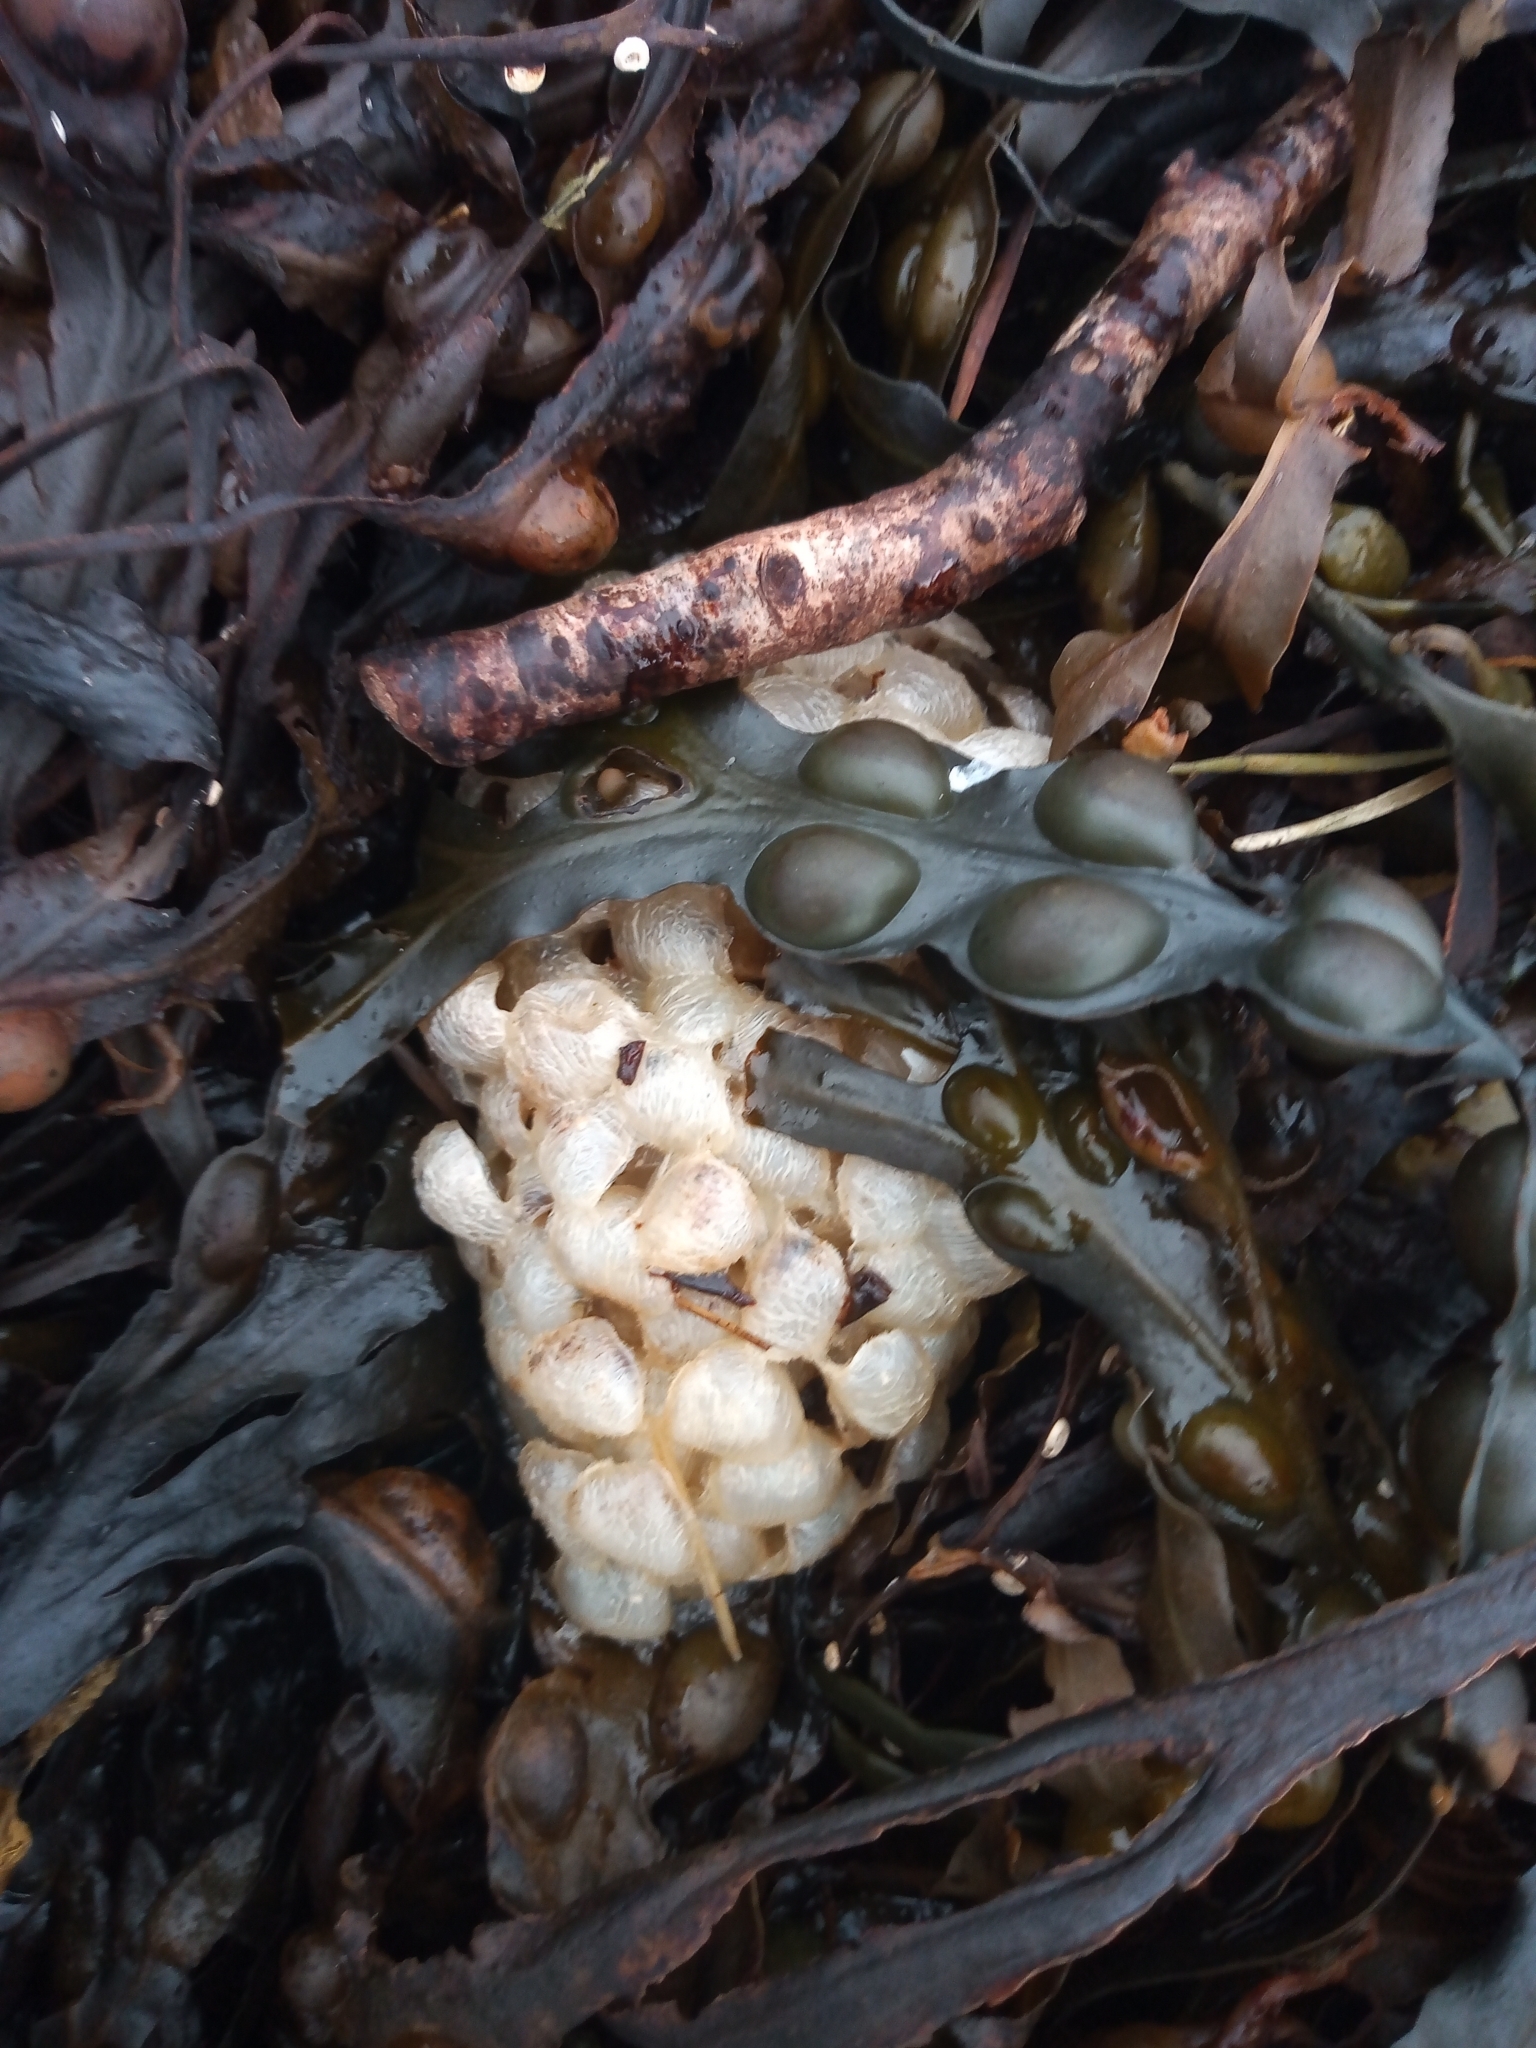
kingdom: Animalia
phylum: Mollusca
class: Gastropoda
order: Neogastropoda
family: Buccinidae
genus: Buccinum
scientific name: Buccinum undatum
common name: Common whelk
